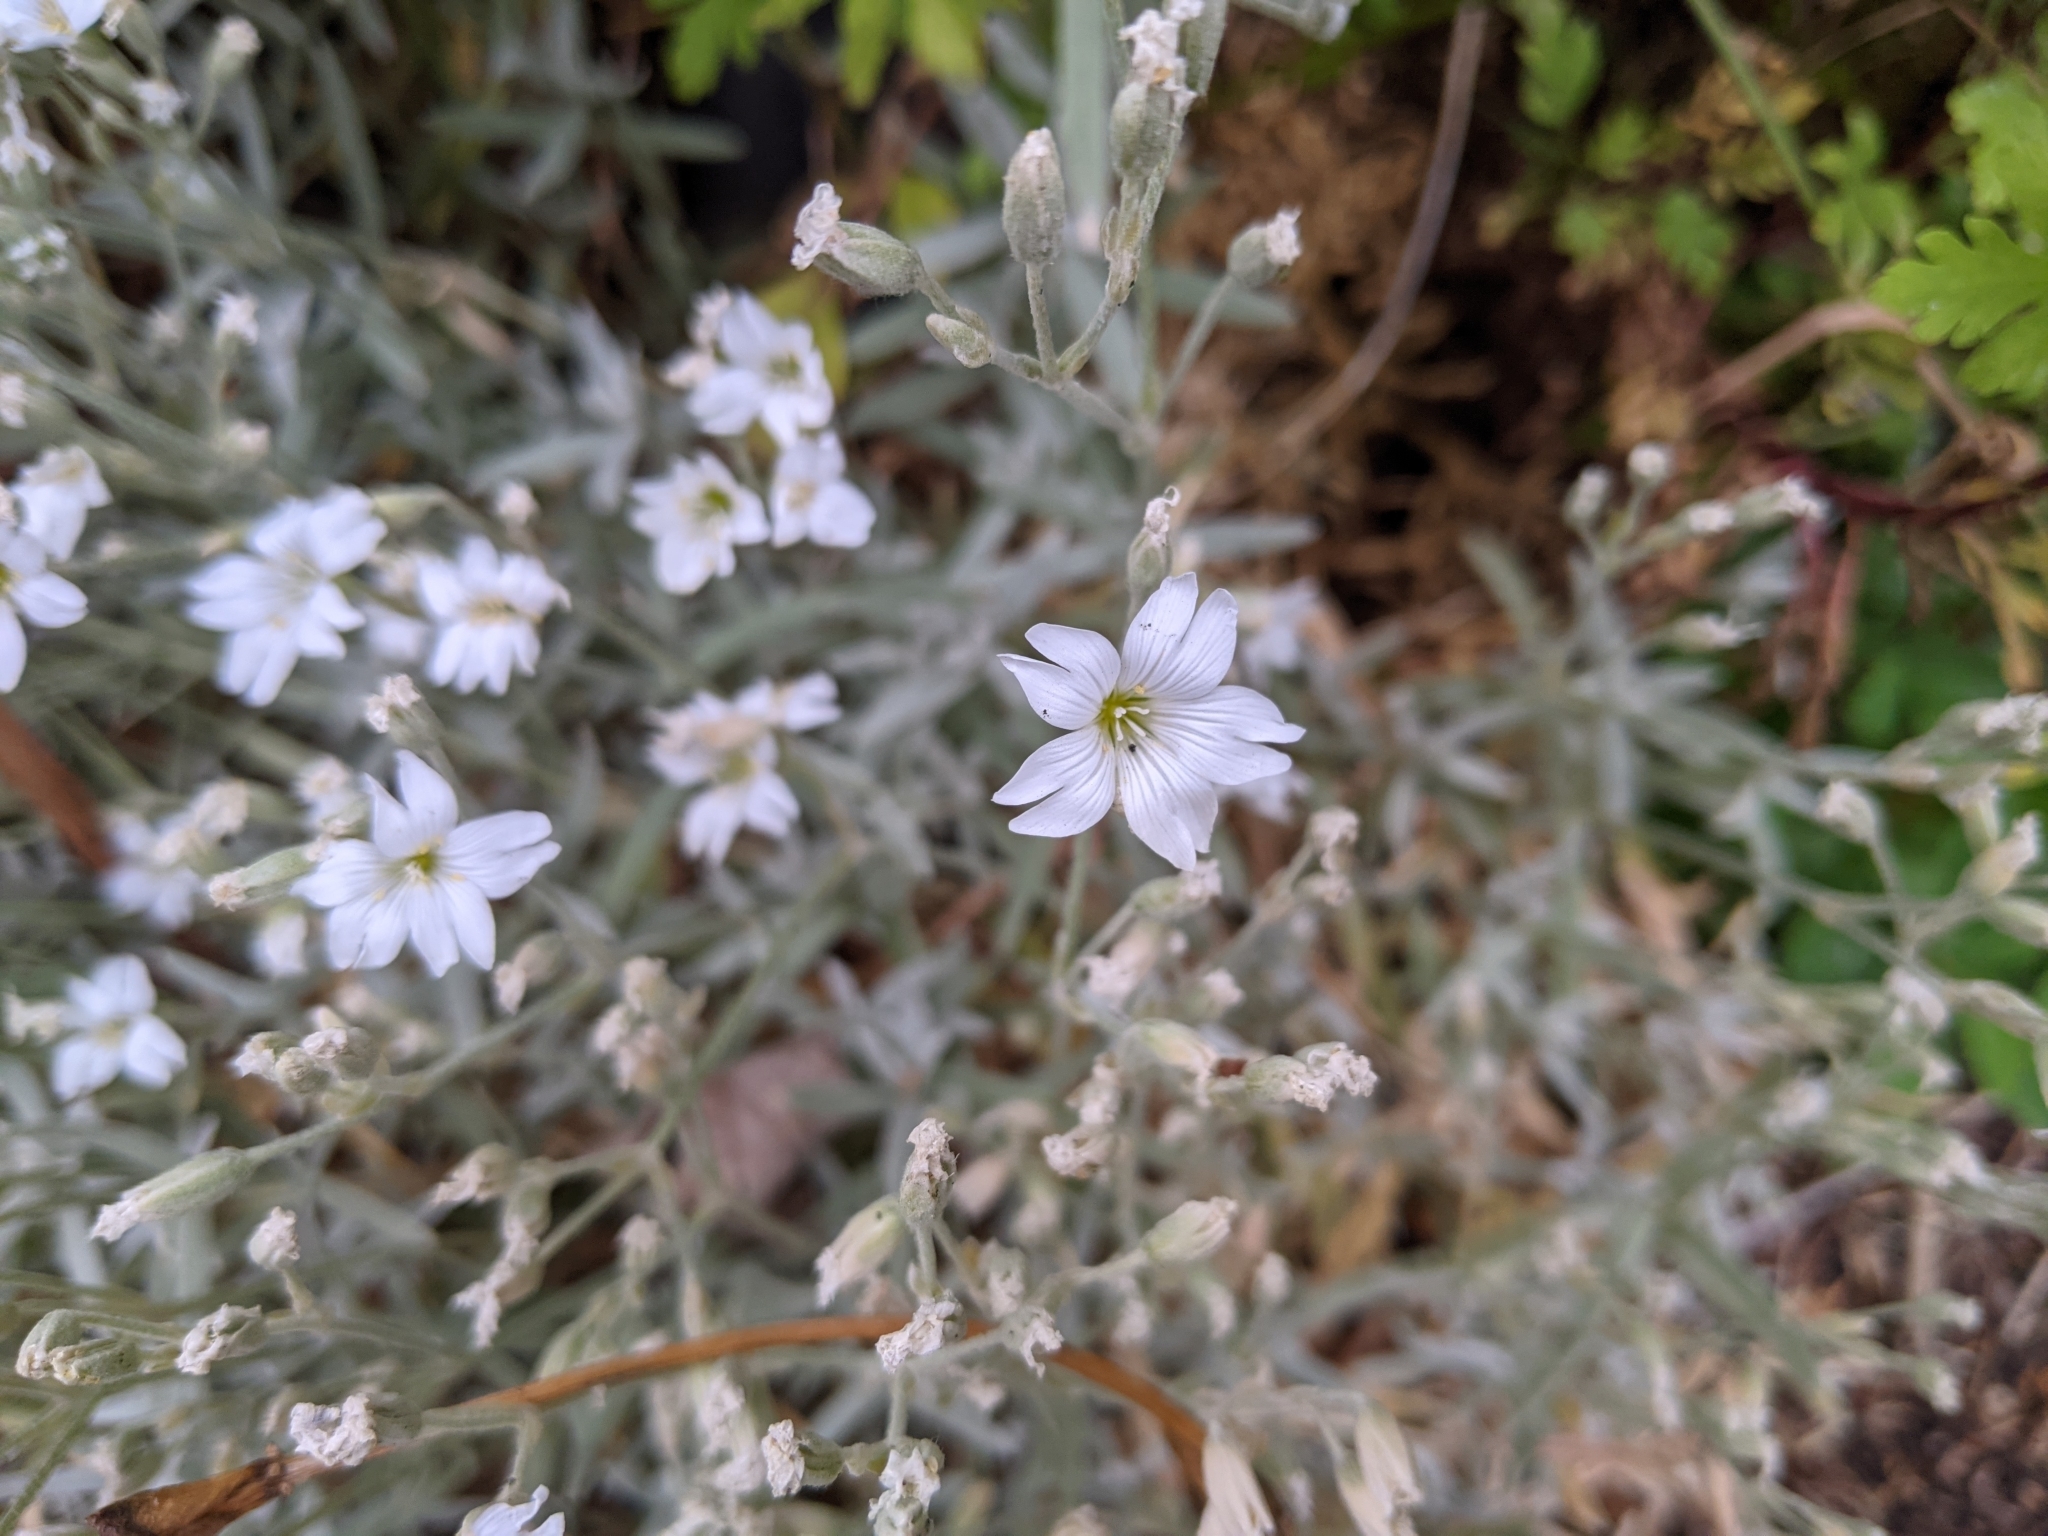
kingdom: Plantae
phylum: Tracheophyta
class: Magnoliopsida
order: Caryophyllales
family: Caryophyllaceae
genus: Cerastium
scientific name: Cerastium tomentosum
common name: Snow-in-summer
